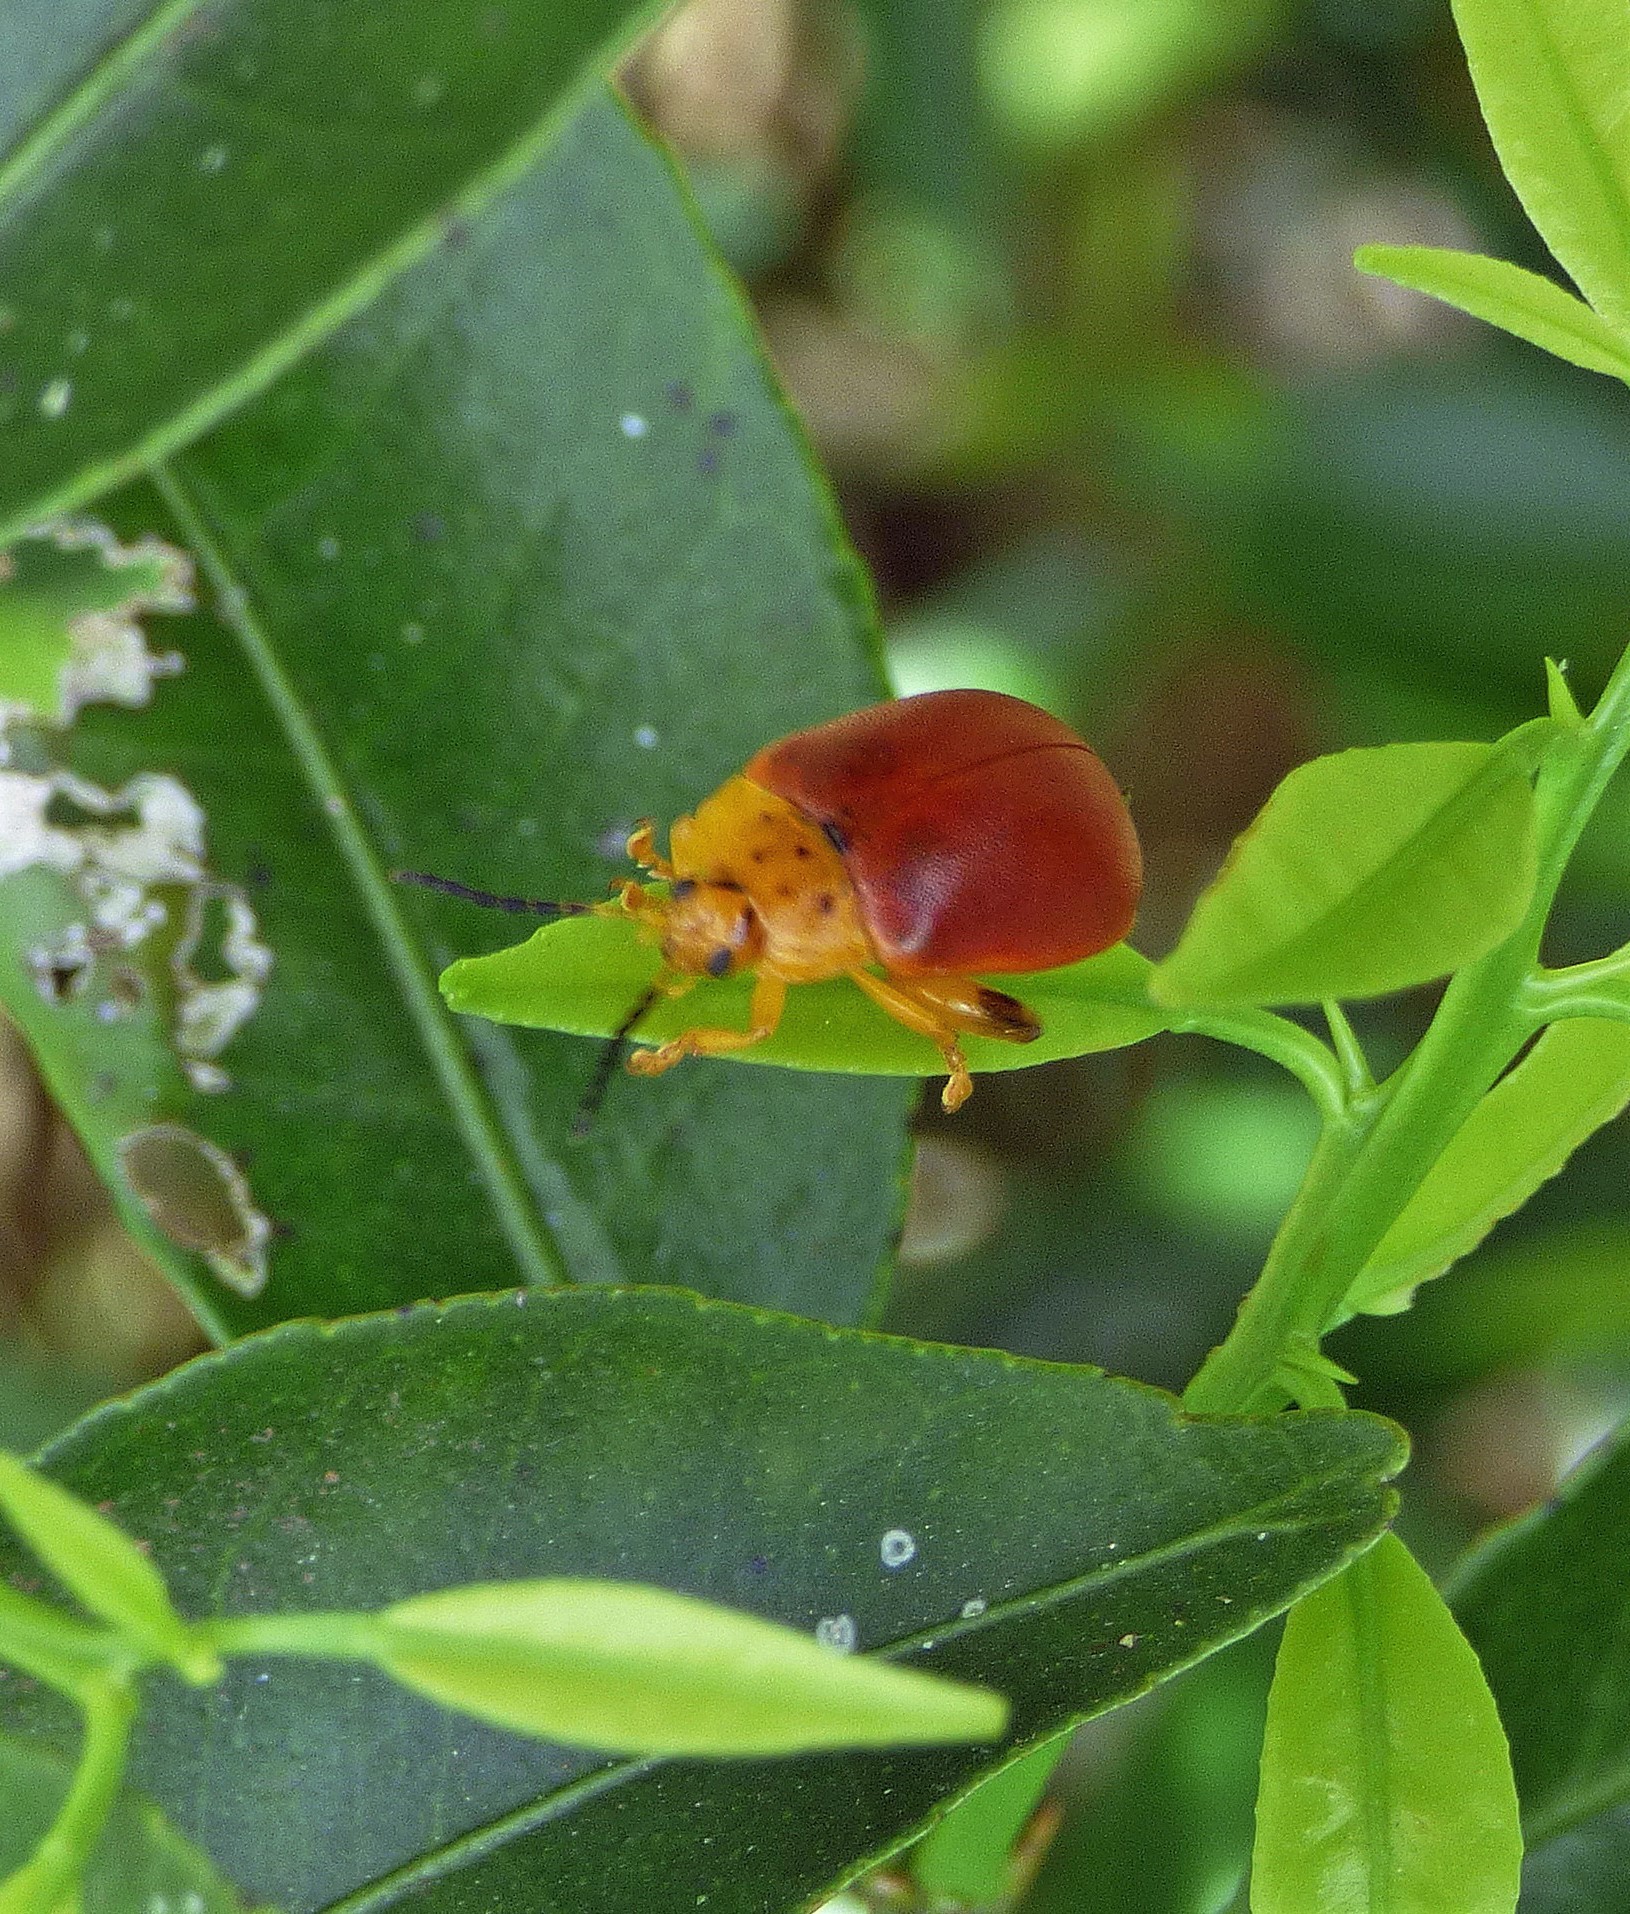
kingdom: Animalia
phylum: Arthropoda
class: Insecta
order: Coleoptera
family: Chrysomelidae
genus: Paranaita
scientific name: Paranaita
